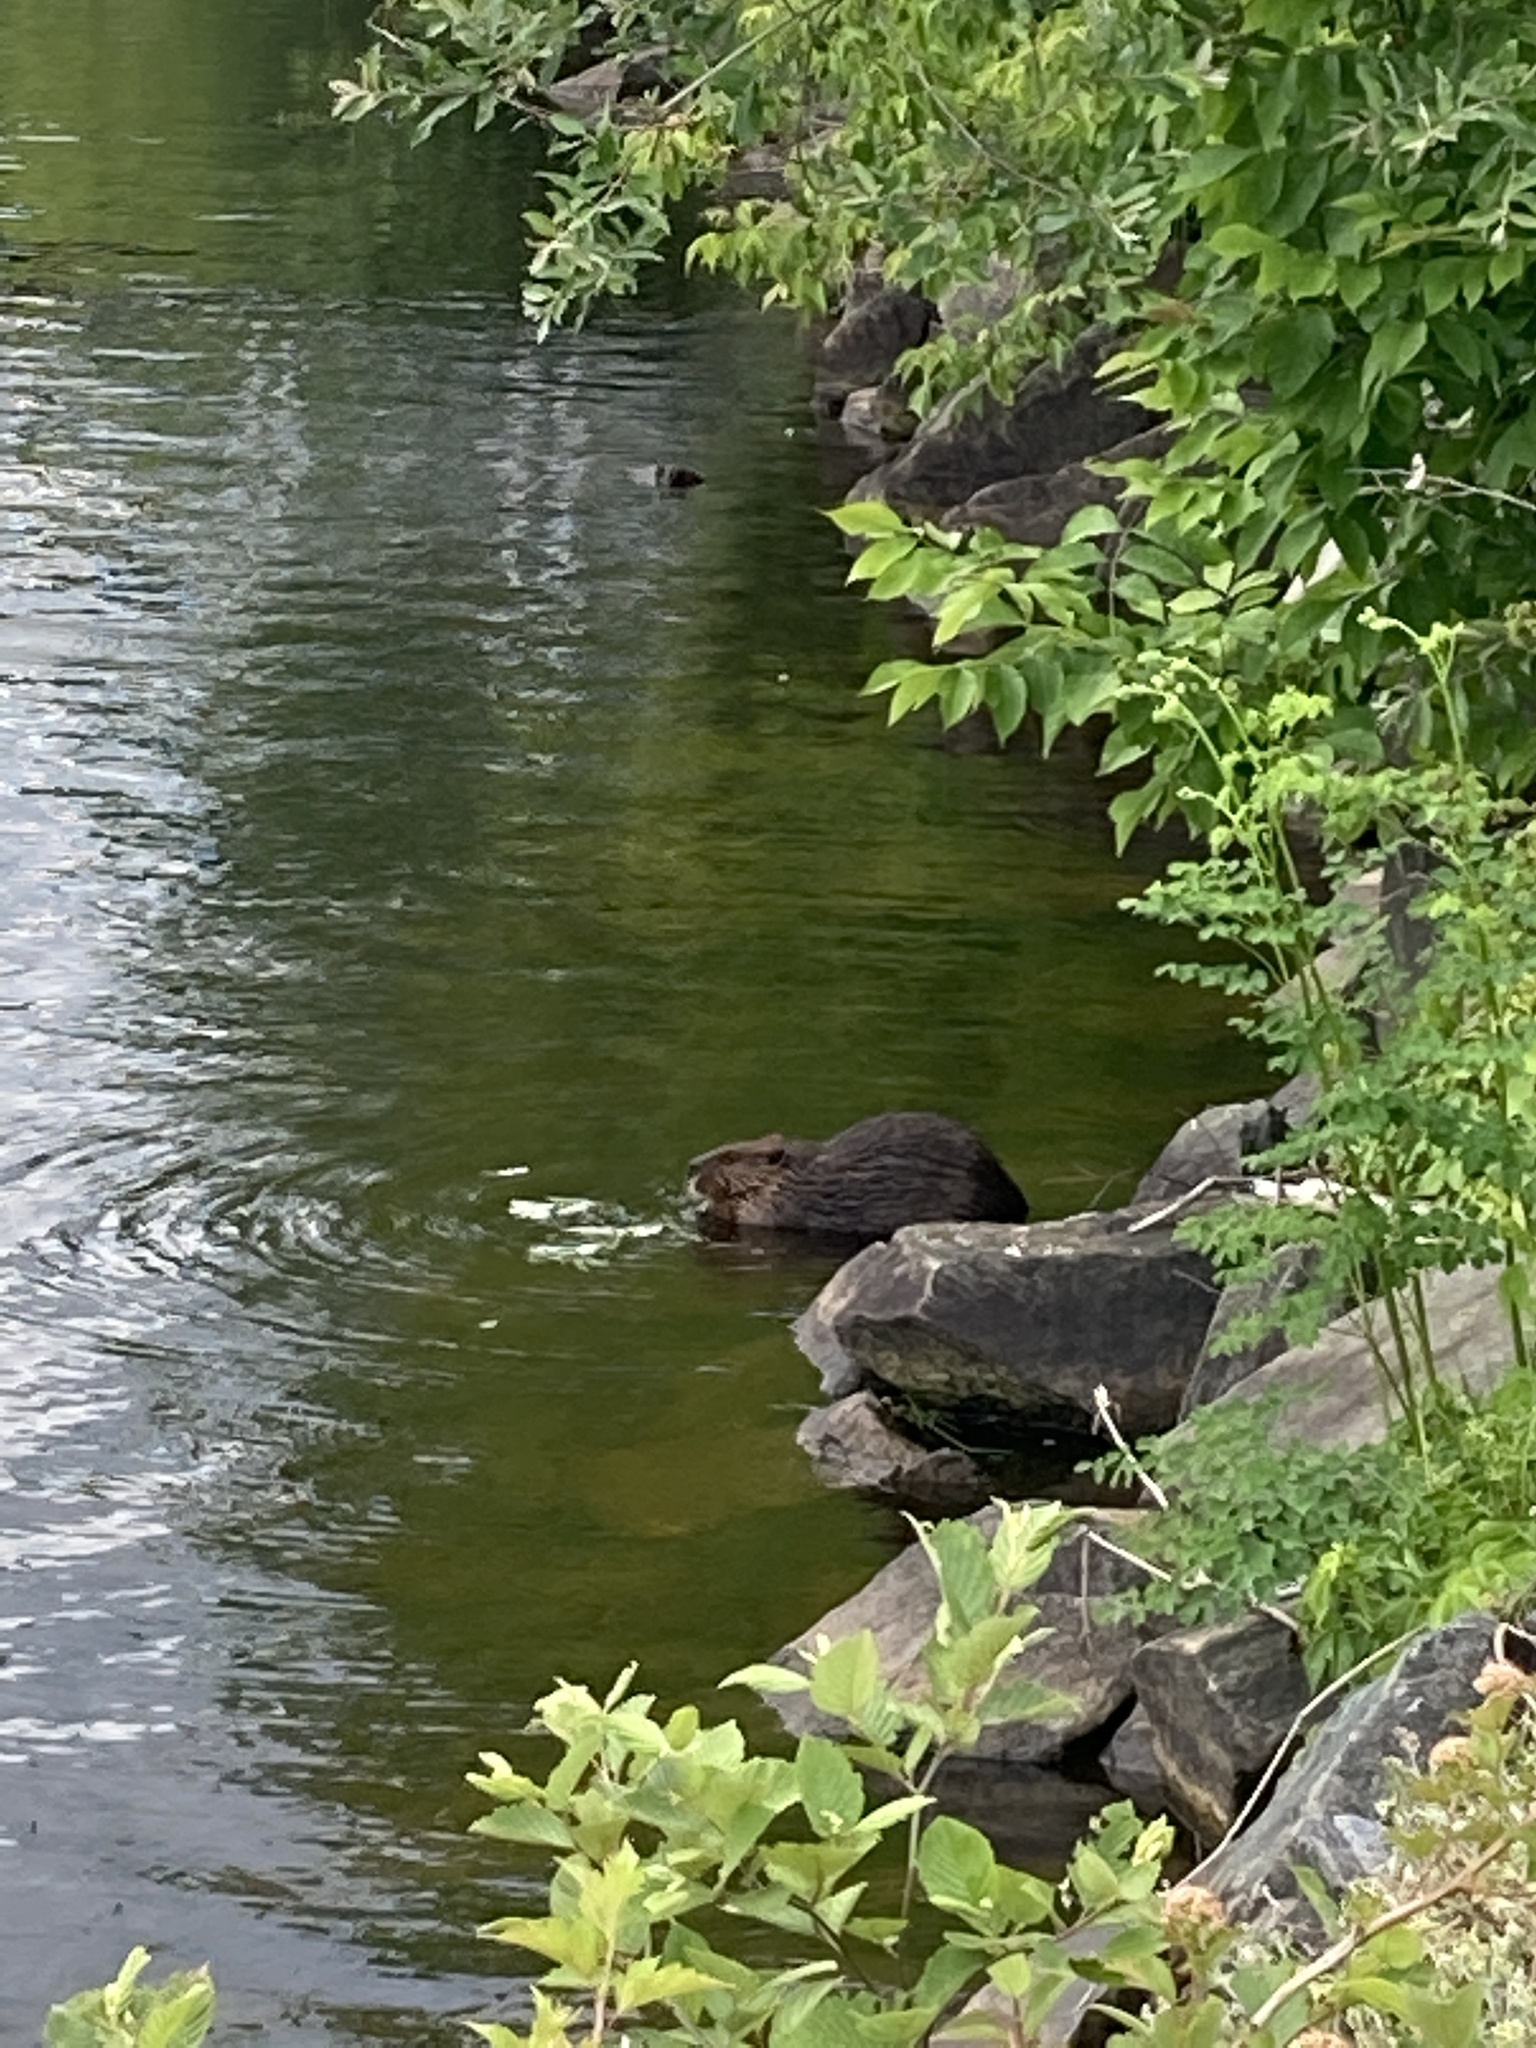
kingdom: Animalia
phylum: Chordata
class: Mammalia
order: Rodentia
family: Castoridae
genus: Castor
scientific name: Castor canadensis
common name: American beaver
